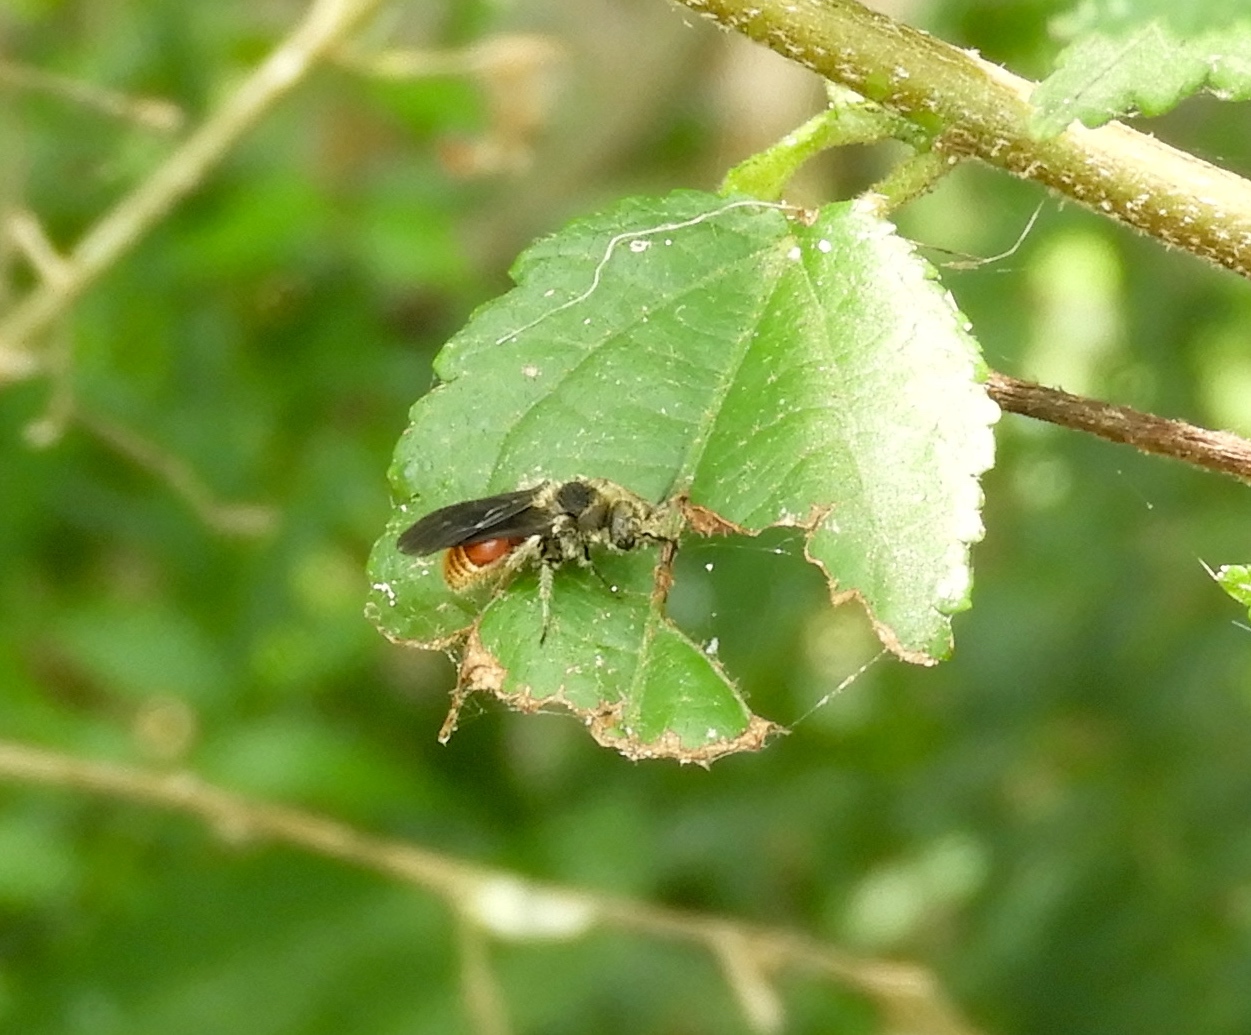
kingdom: Animalia
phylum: Arthropoda
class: Insecta
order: Hymenoptera
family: Mutillidae
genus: Pseudomethoca
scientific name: Pseudomethoca
